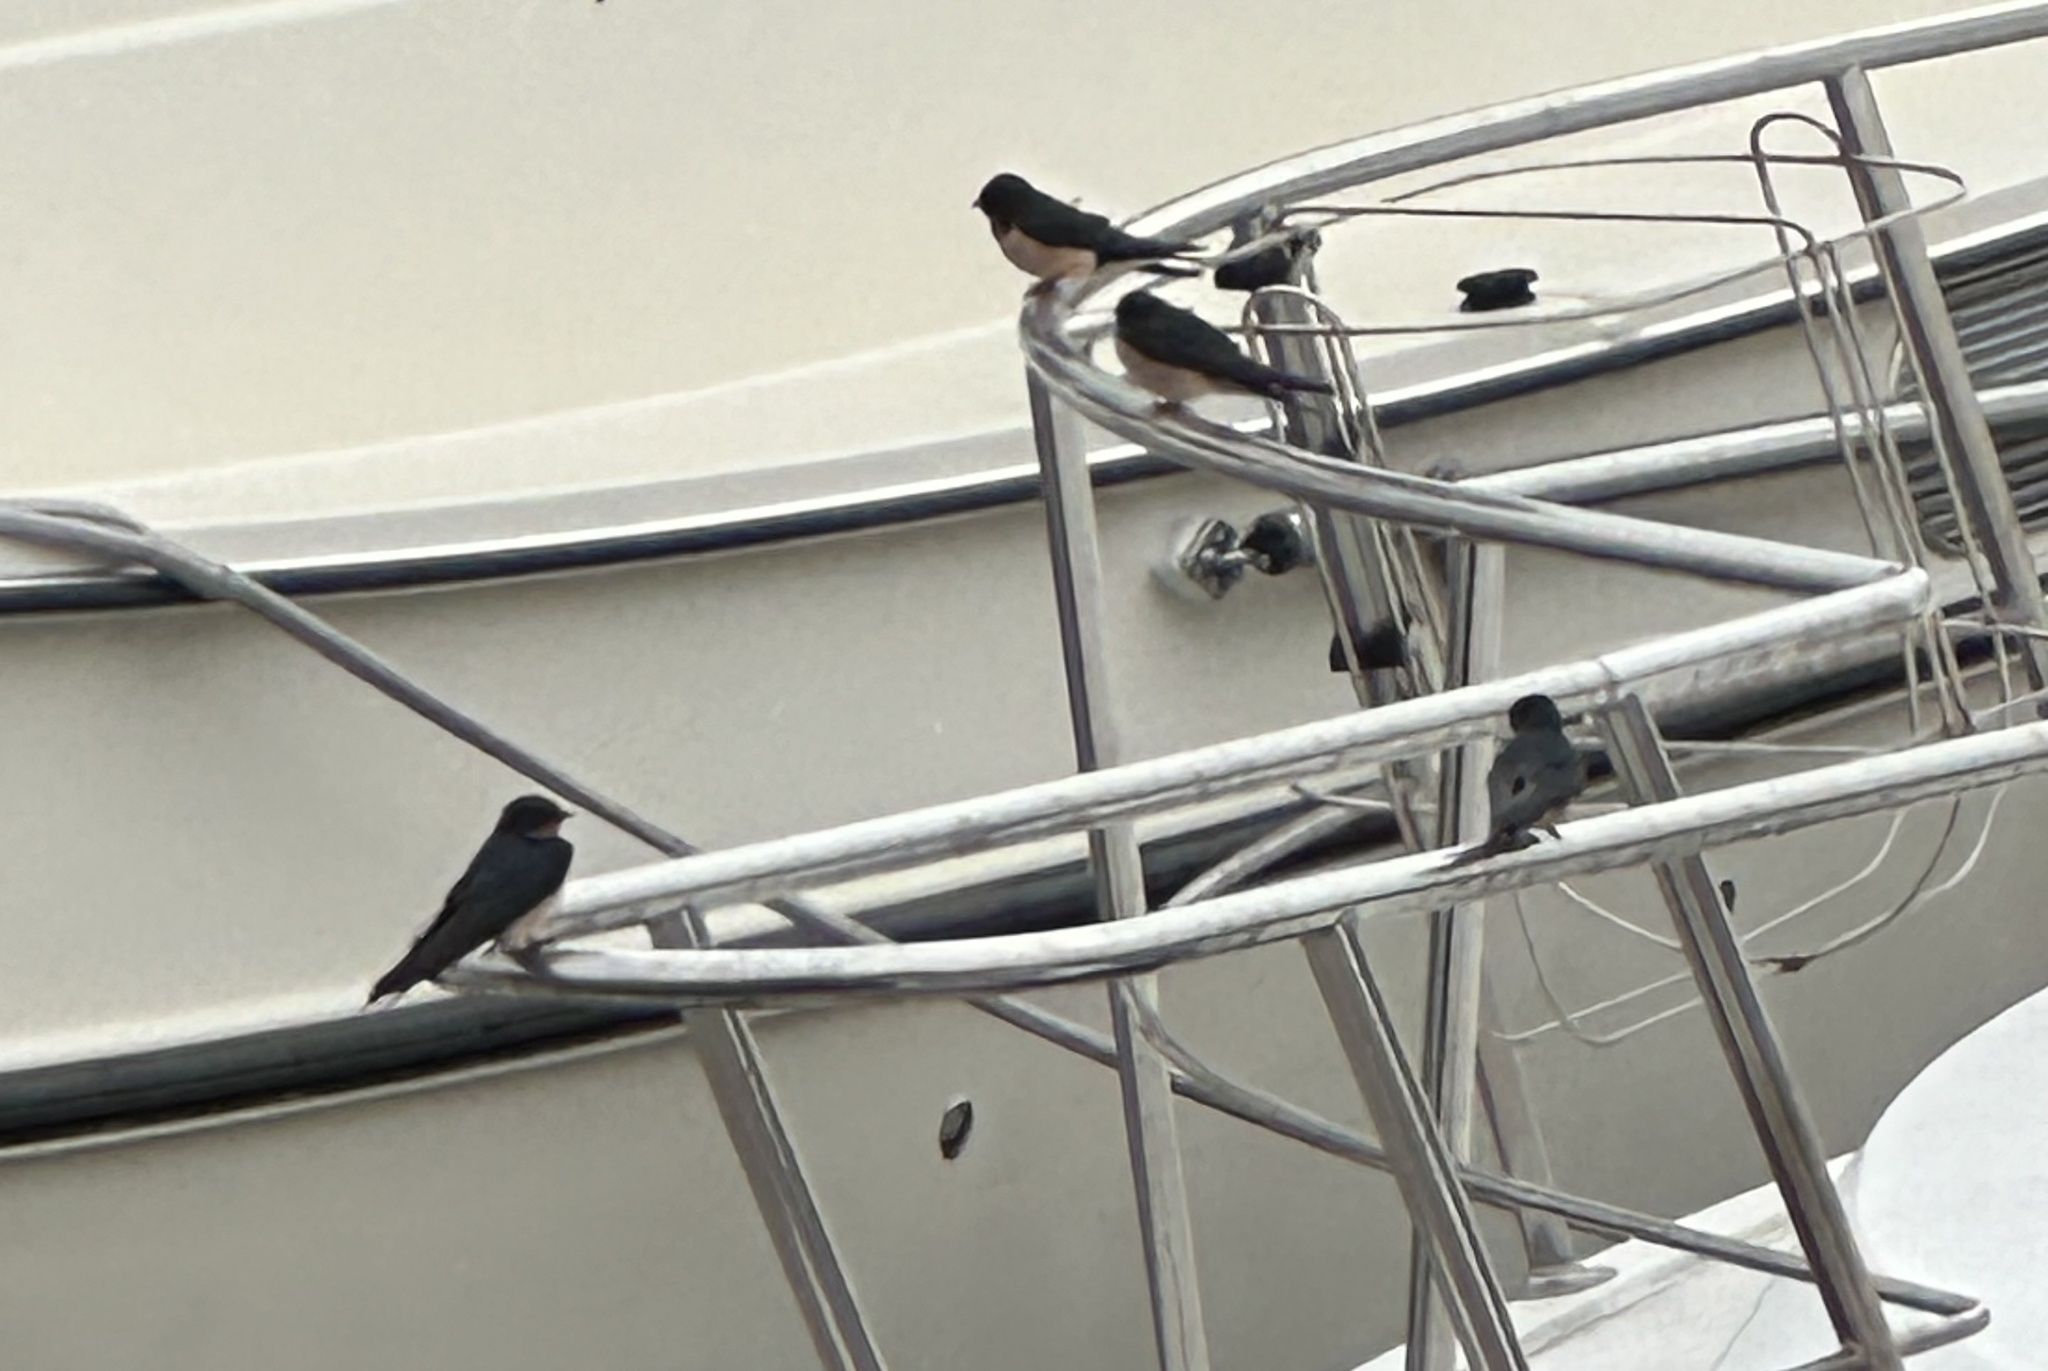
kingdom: Animalia
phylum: Chordata
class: Aves
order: Passeriformes
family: Hirundinidae
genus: Hirundo
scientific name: Hirundo rustica
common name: Barn swallow
